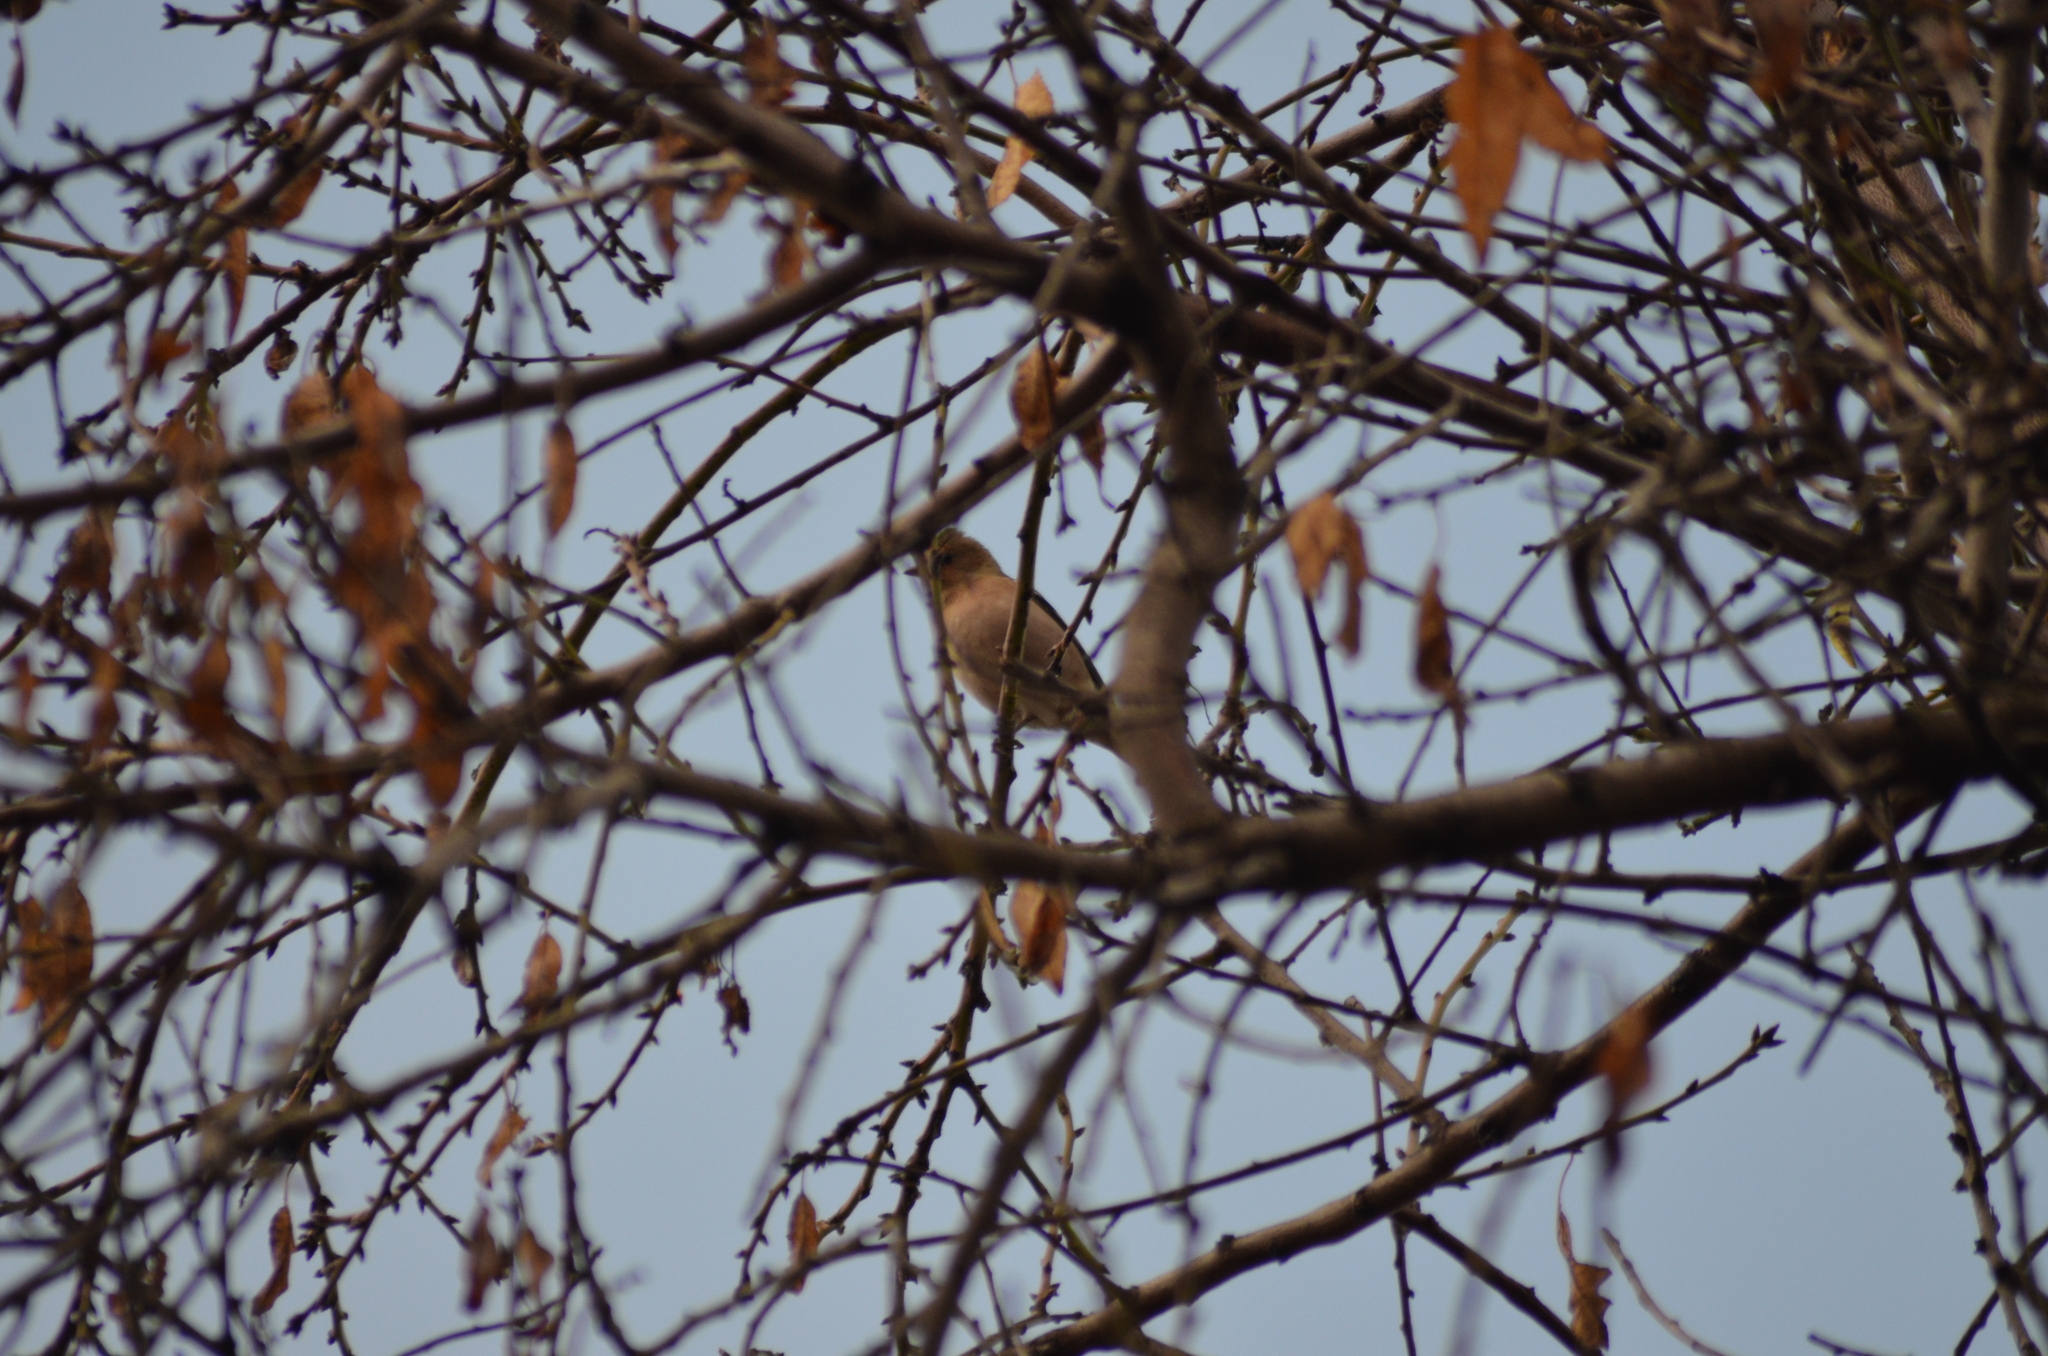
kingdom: Animalia
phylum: Chordata
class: Aves
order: Passeriformes
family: Fringillidae
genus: Fringilla
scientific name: Fringilla coelebs
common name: Common chaffinch
